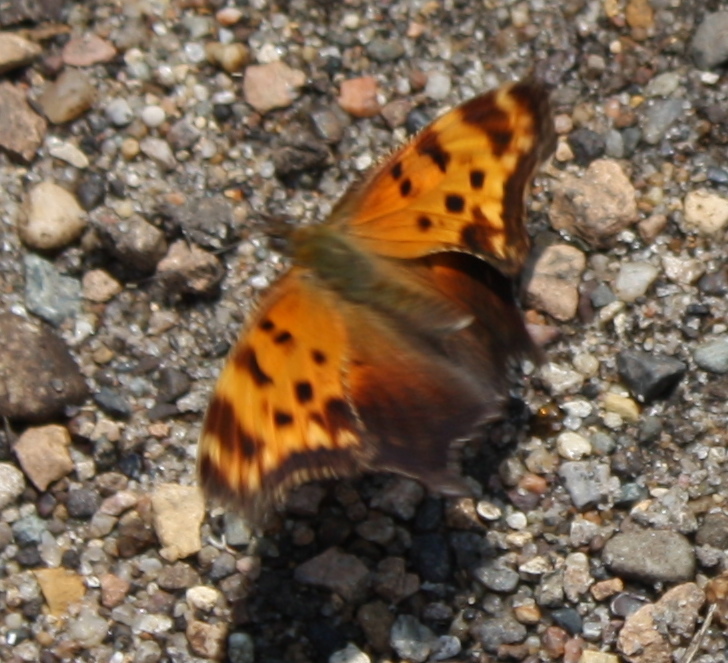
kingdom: Animalia
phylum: Arthropoda
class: Insecta
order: Lepidoptera
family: Nymphalidae
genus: Polygonia
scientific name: Polygonia comma
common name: Eastern comma
